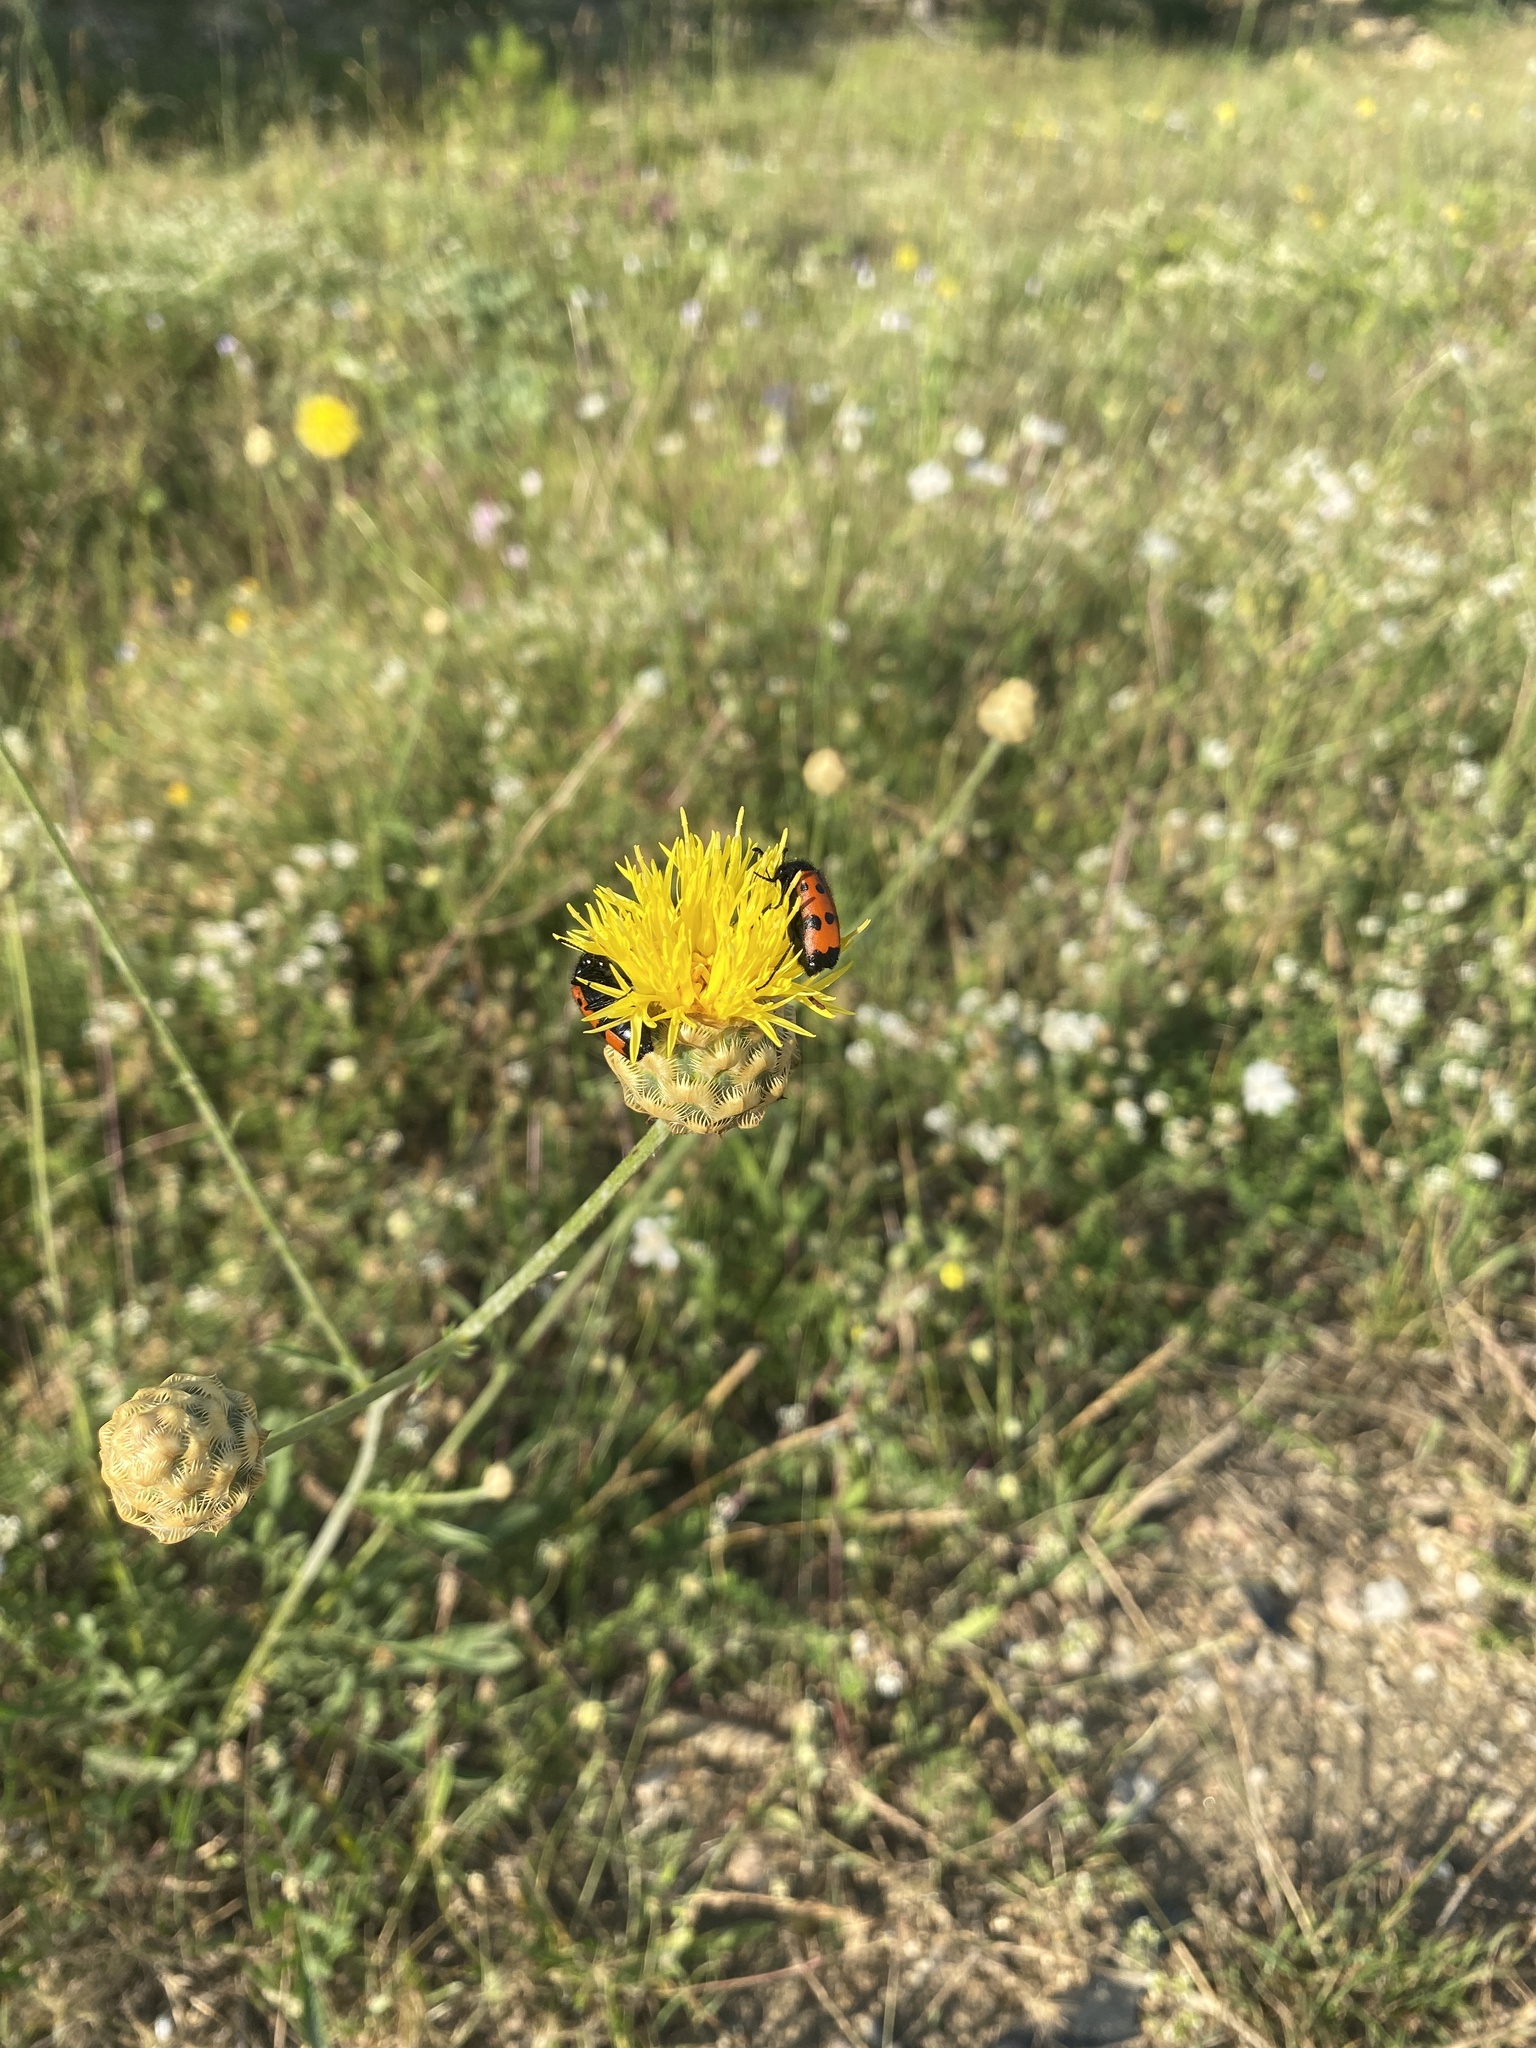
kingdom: Plantae
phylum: Tracheophyta
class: Magnoliopsida
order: Asterales
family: Asteraceae
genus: Centaurea
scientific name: Centaurea salonitana
